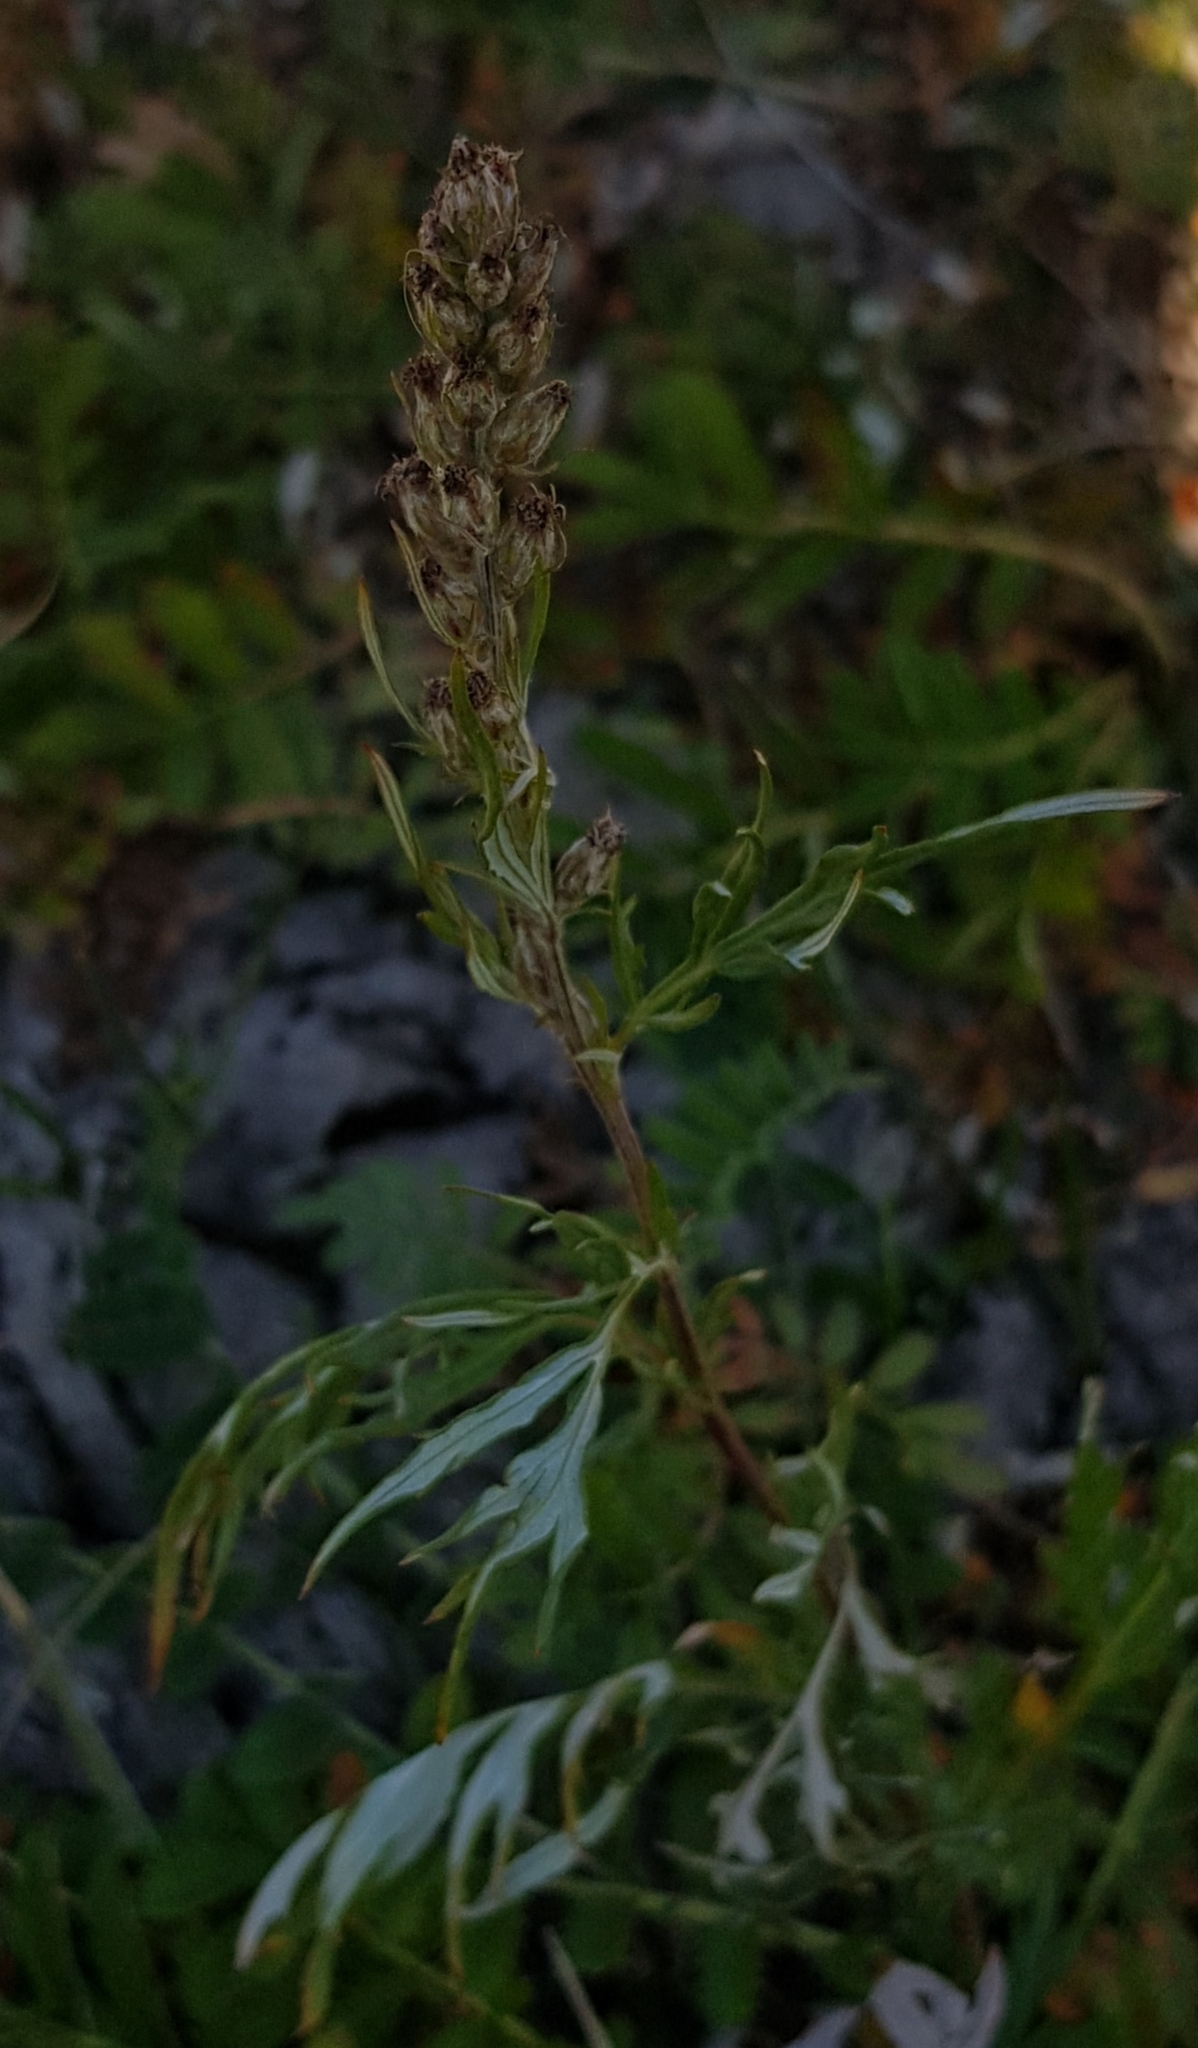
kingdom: Plantae
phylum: Tracheophyta
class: Magnoliopsida
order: Asterales
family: Asteraceae
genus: Artemisia
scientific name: Artemisia vulgaris
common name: Mugwort
